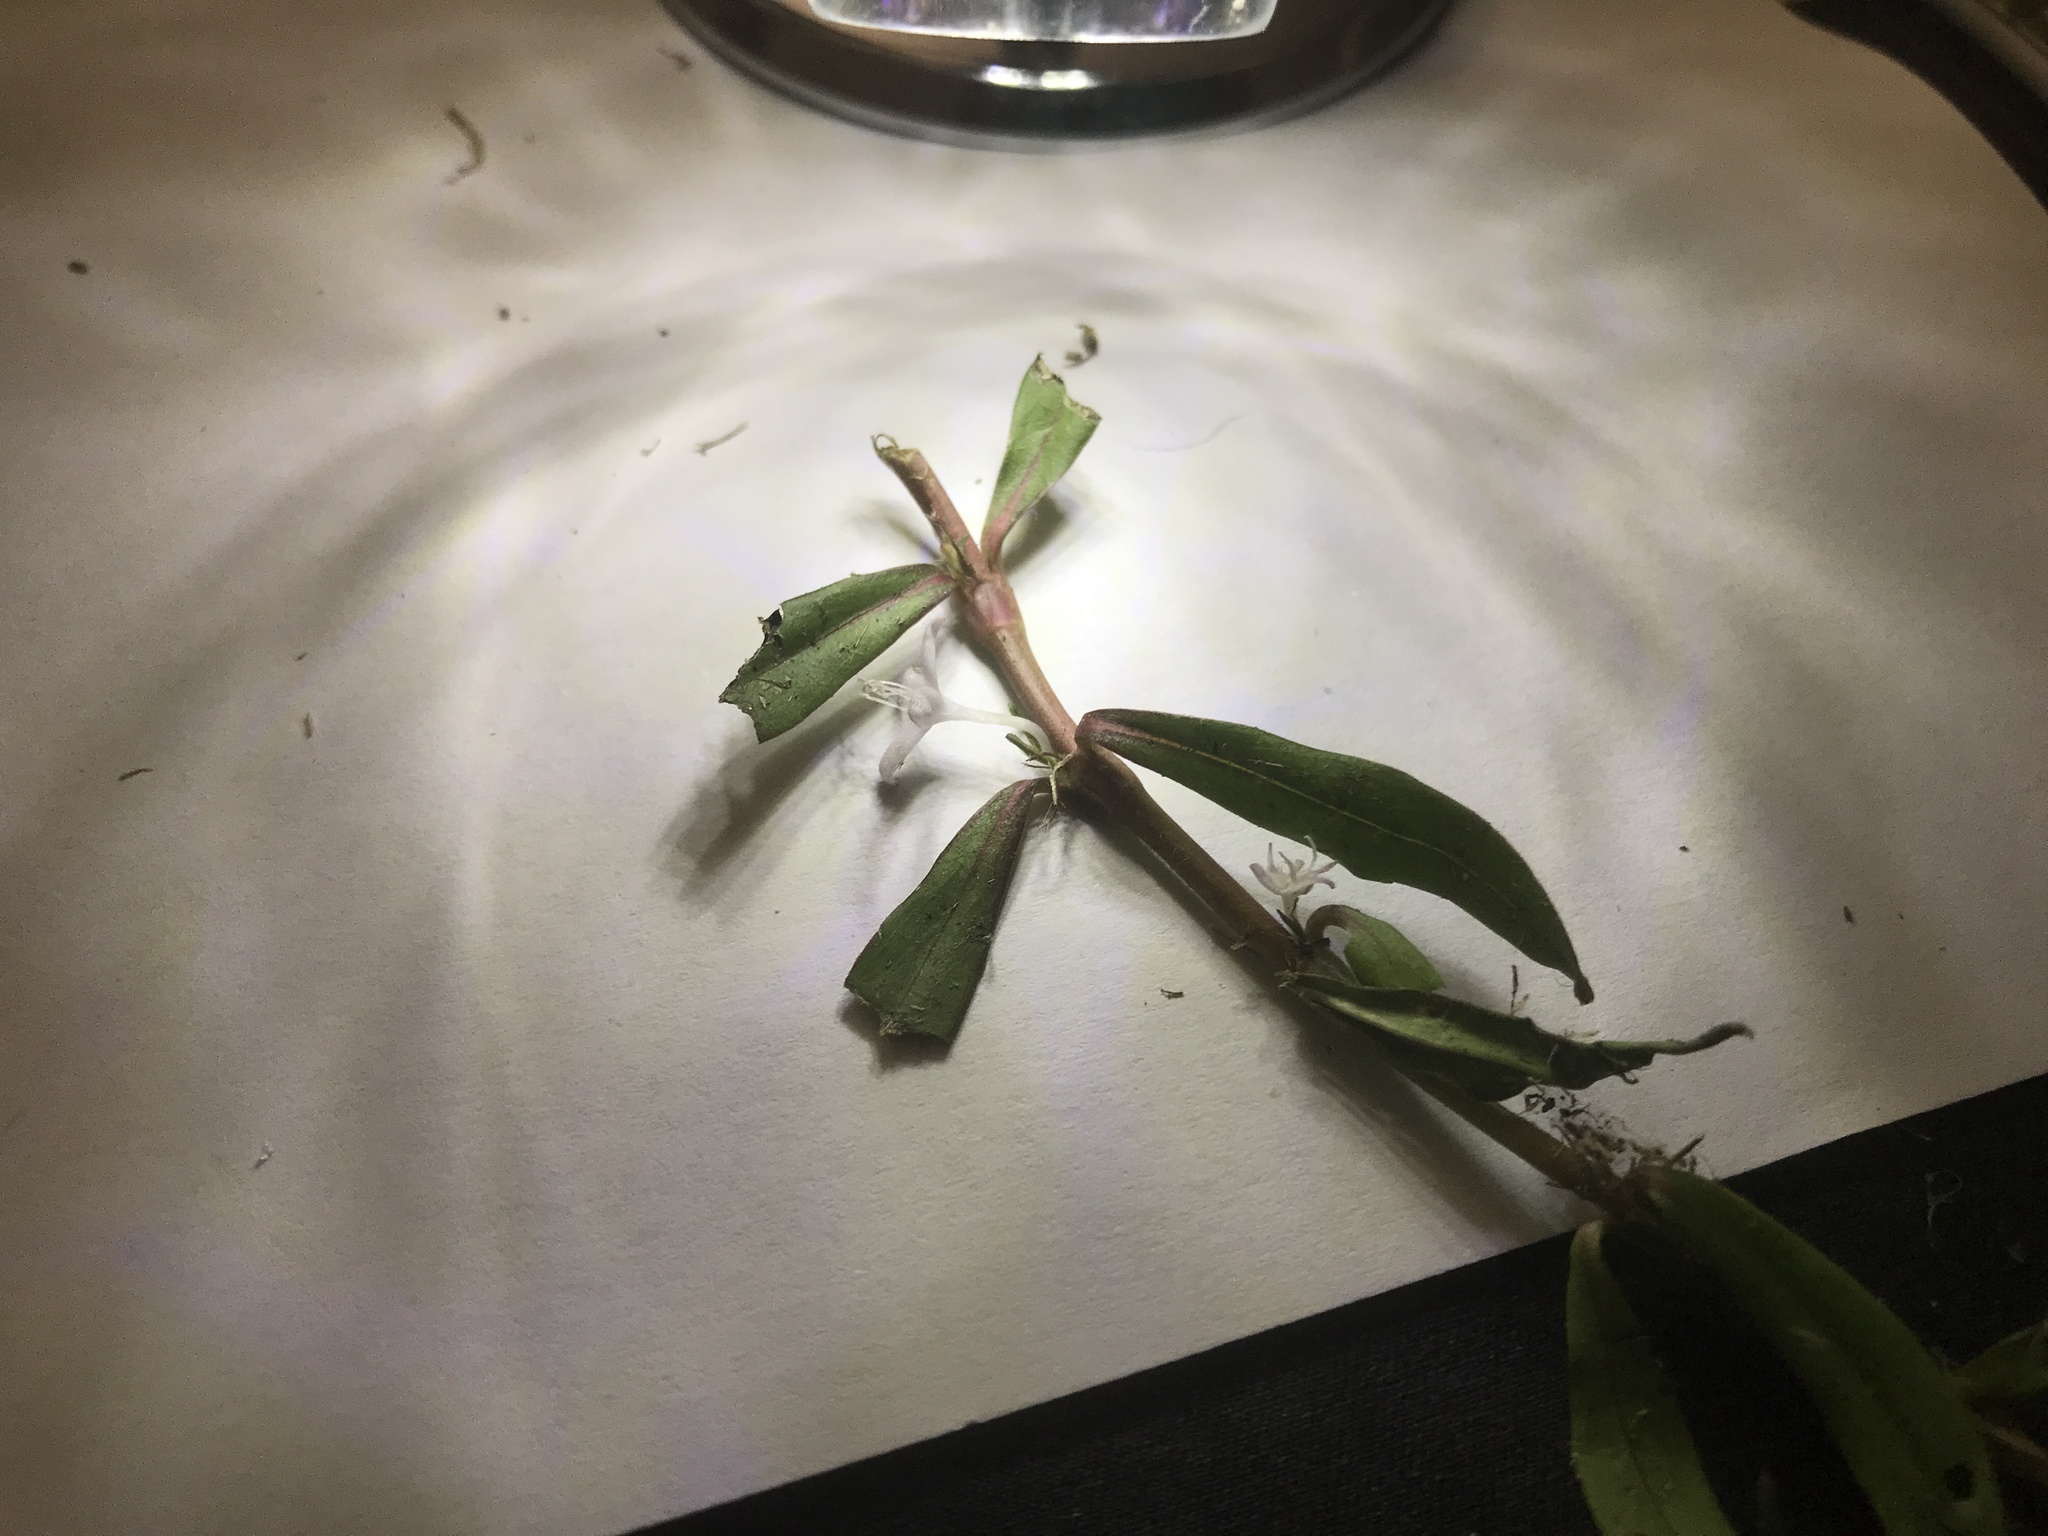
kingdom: Plantae
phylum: Tracheophyta
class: Magnoliopsida
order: Gentianales
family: Rubiaceae
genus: Diodia
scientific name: Diodia virginiana
